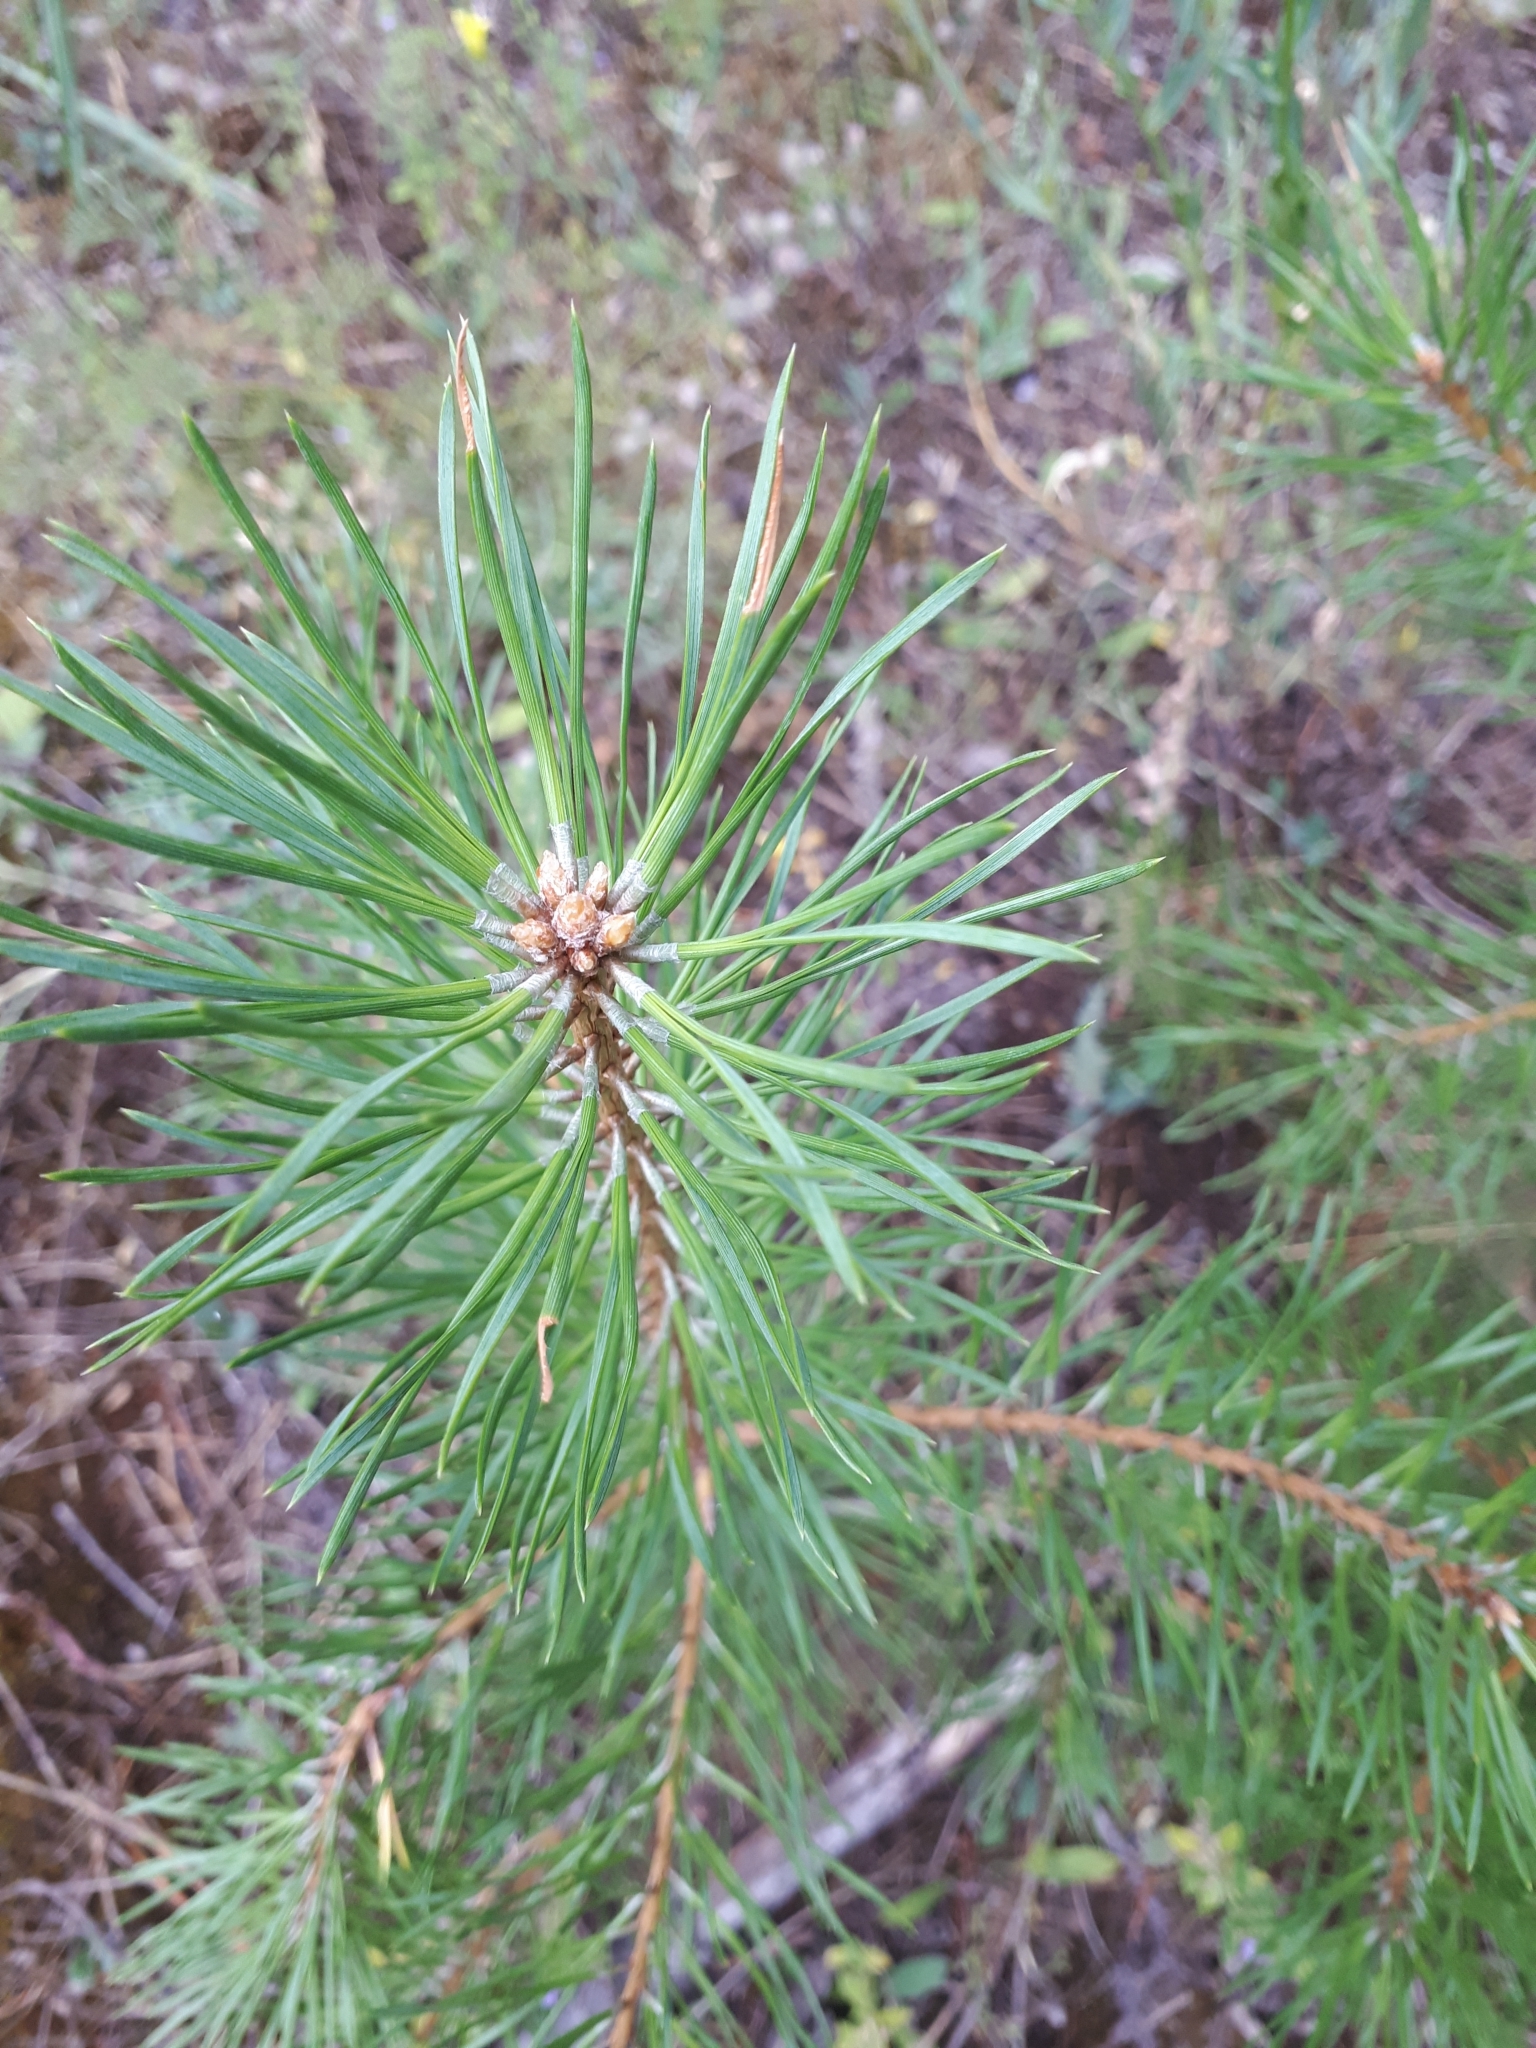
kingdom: Plantae
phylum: Tracheophyta
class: Pinopsida
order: Pinales
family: Pinaceae
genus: Pinus
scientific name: Pinus sylvestris
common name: Scots pine
